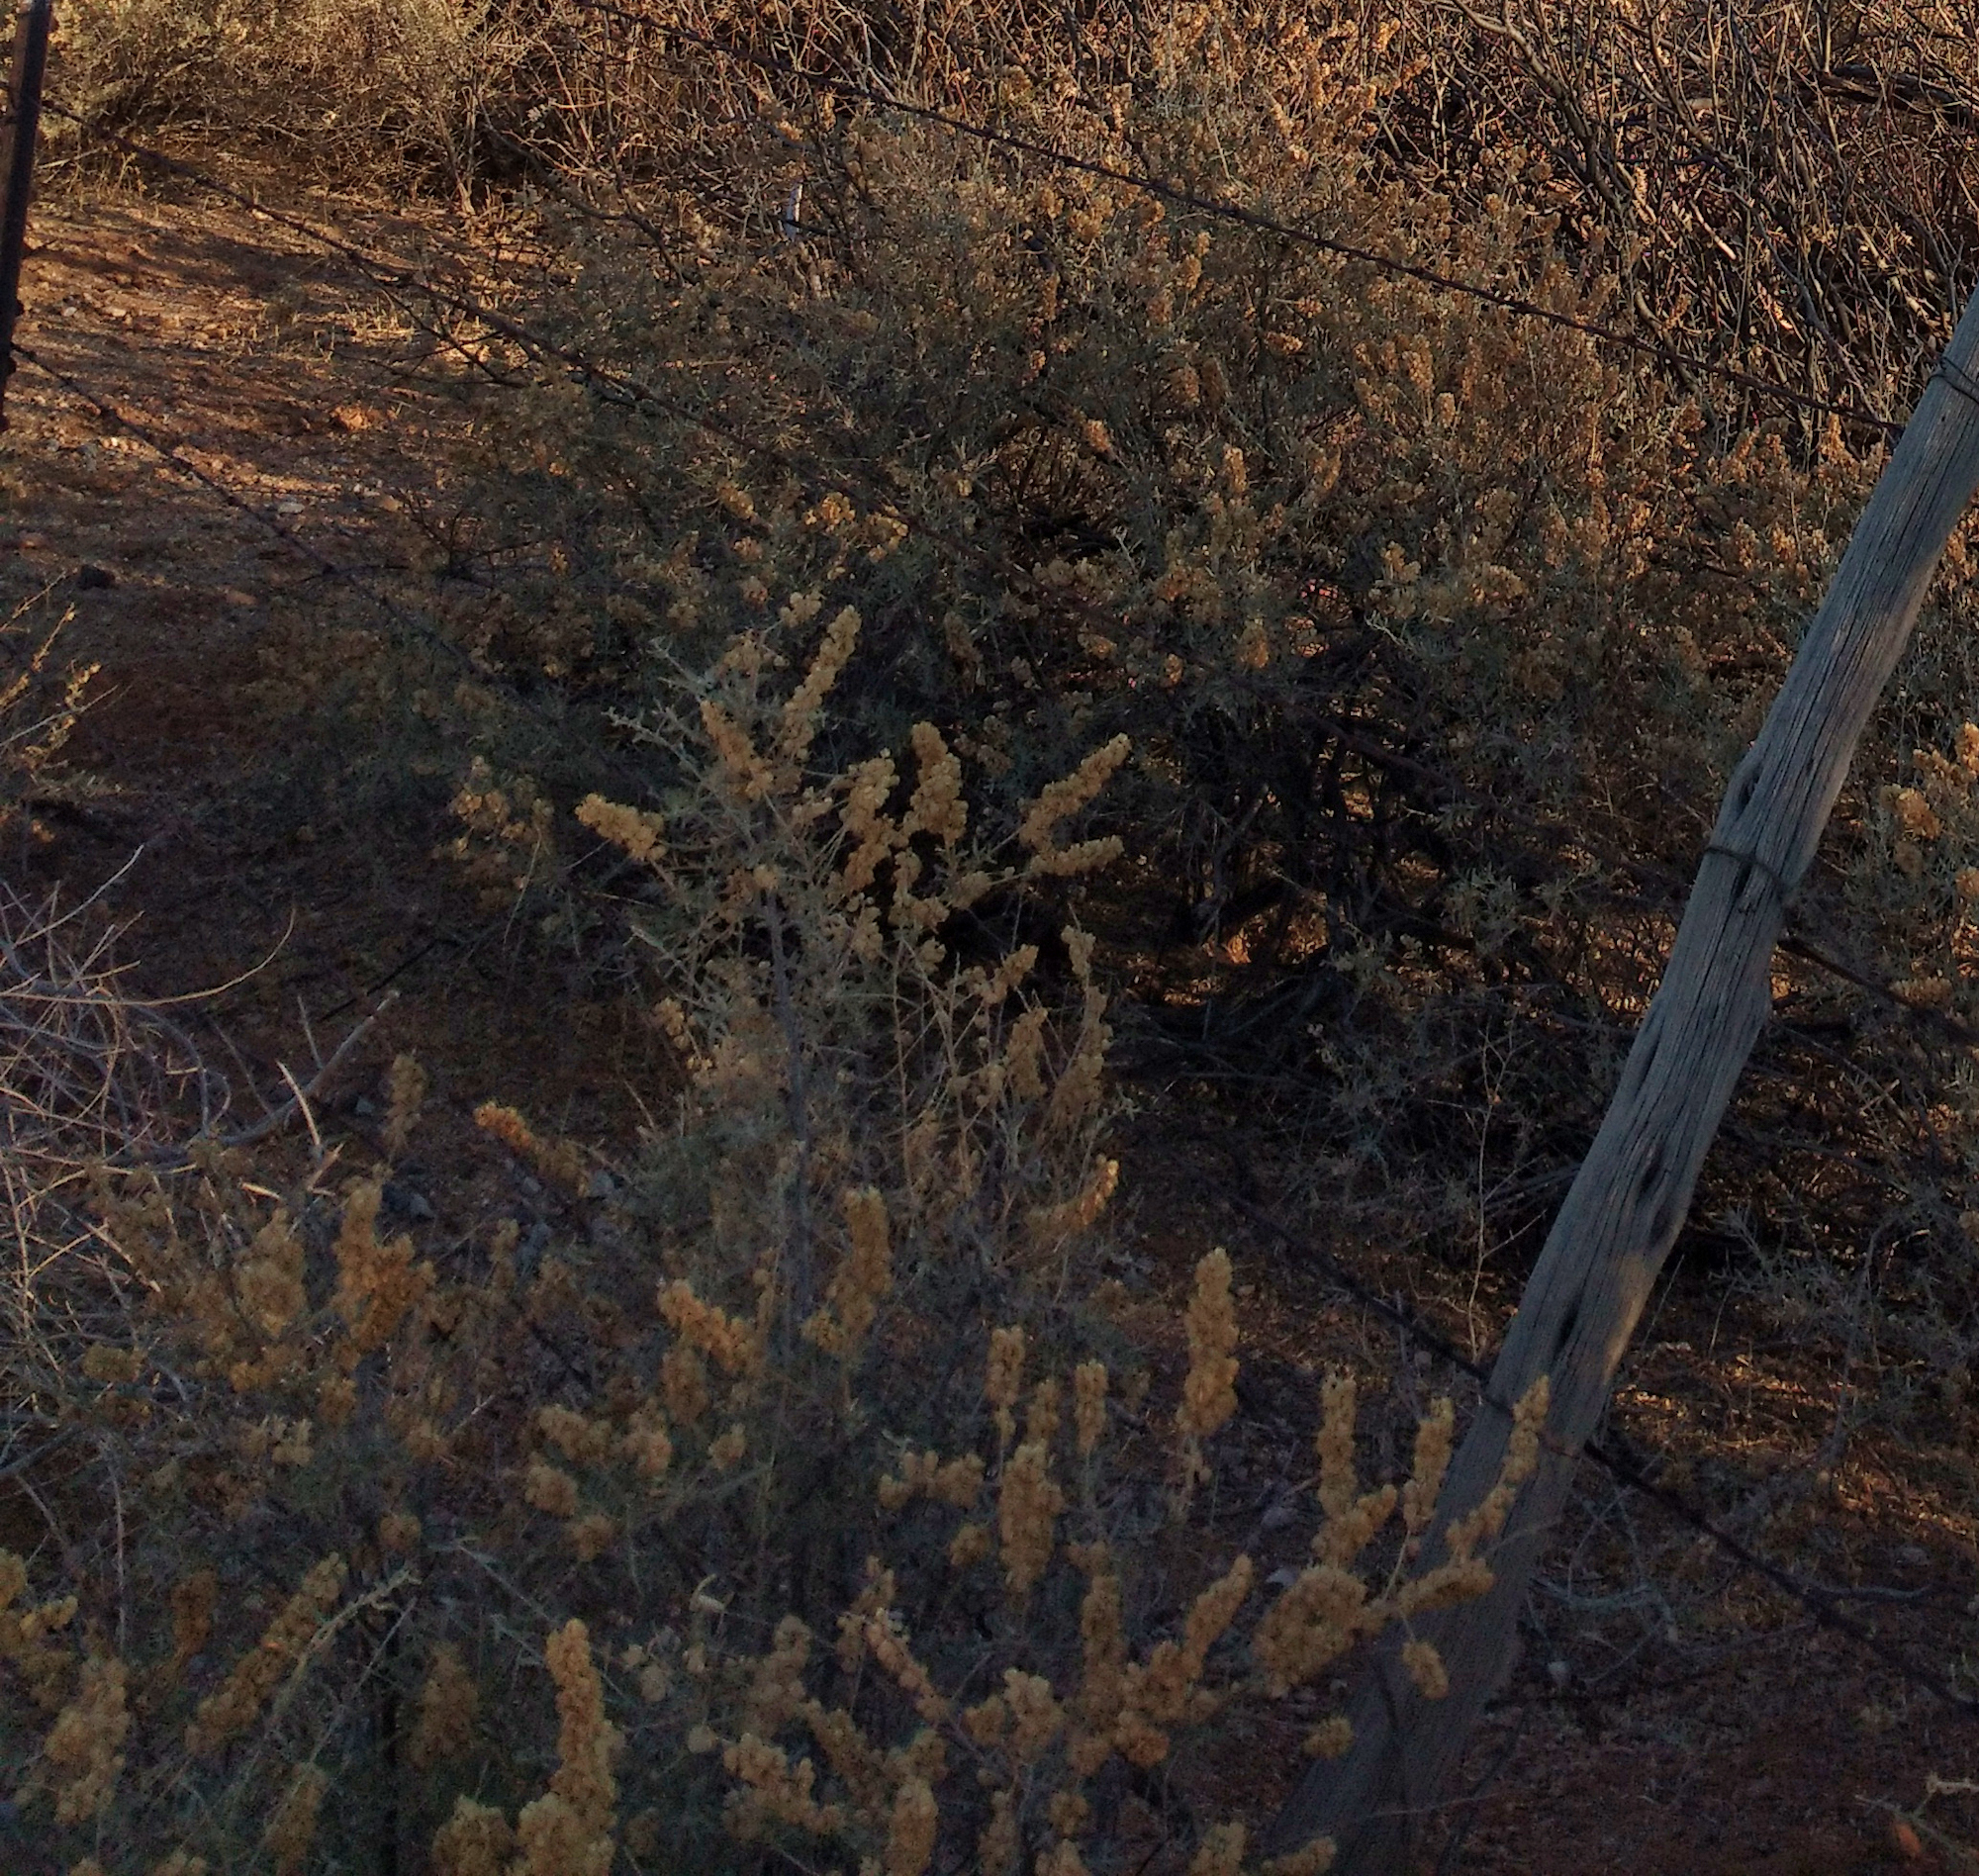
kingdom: Plantae
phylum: Tracheophyta
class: Magnoliopsida
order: Caryophyllales
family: Amaranthaceae
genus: Atriplex
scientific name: Atriplex canescens
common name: Four-wing saltbush
